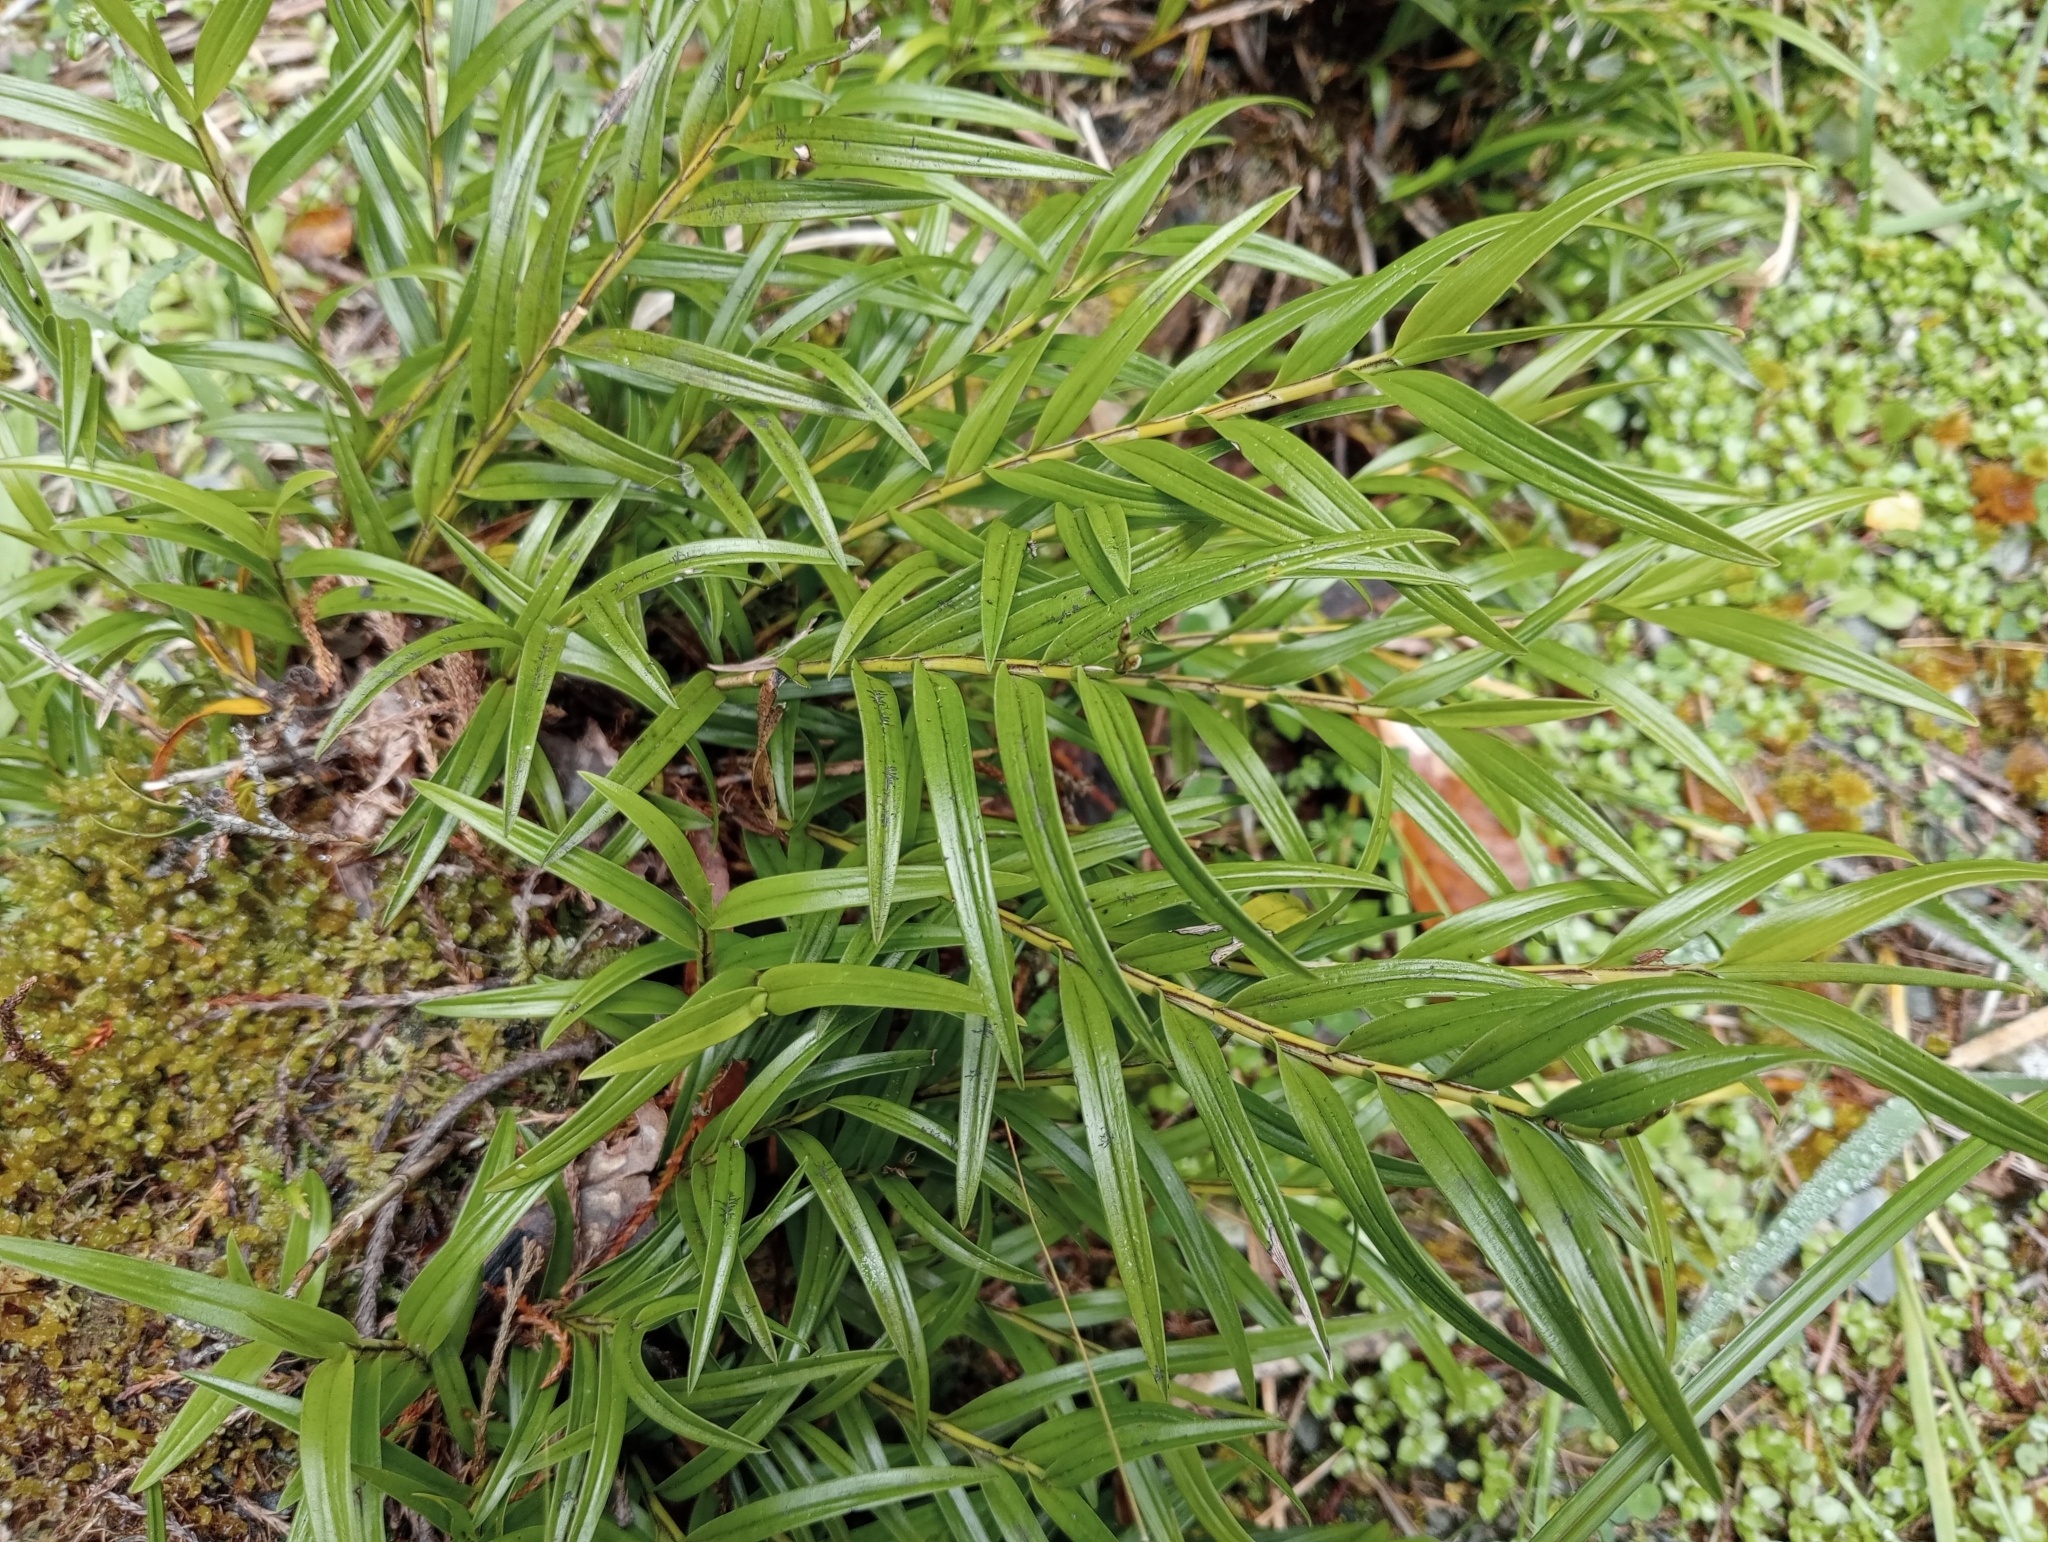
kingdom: Plantae
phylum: Tracheophyta
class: Liliopsida
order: Asparagales
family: Orchidaceae
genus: Earina
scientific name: Earina autumnalis
